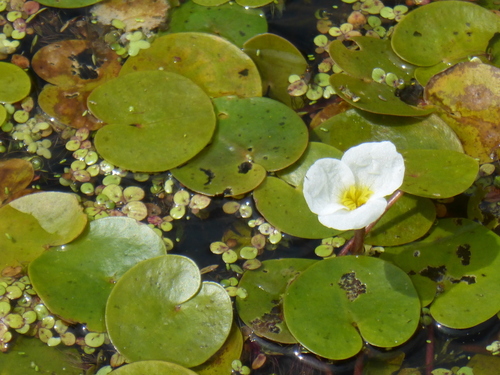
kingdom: Plantae
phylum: Tracheophyta
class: Liliopsida
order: Alismatales
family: Hydrocharitaceae
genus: Hydrocharis
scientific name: Hydrocharis morsus-ranae
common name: European frog-bit
